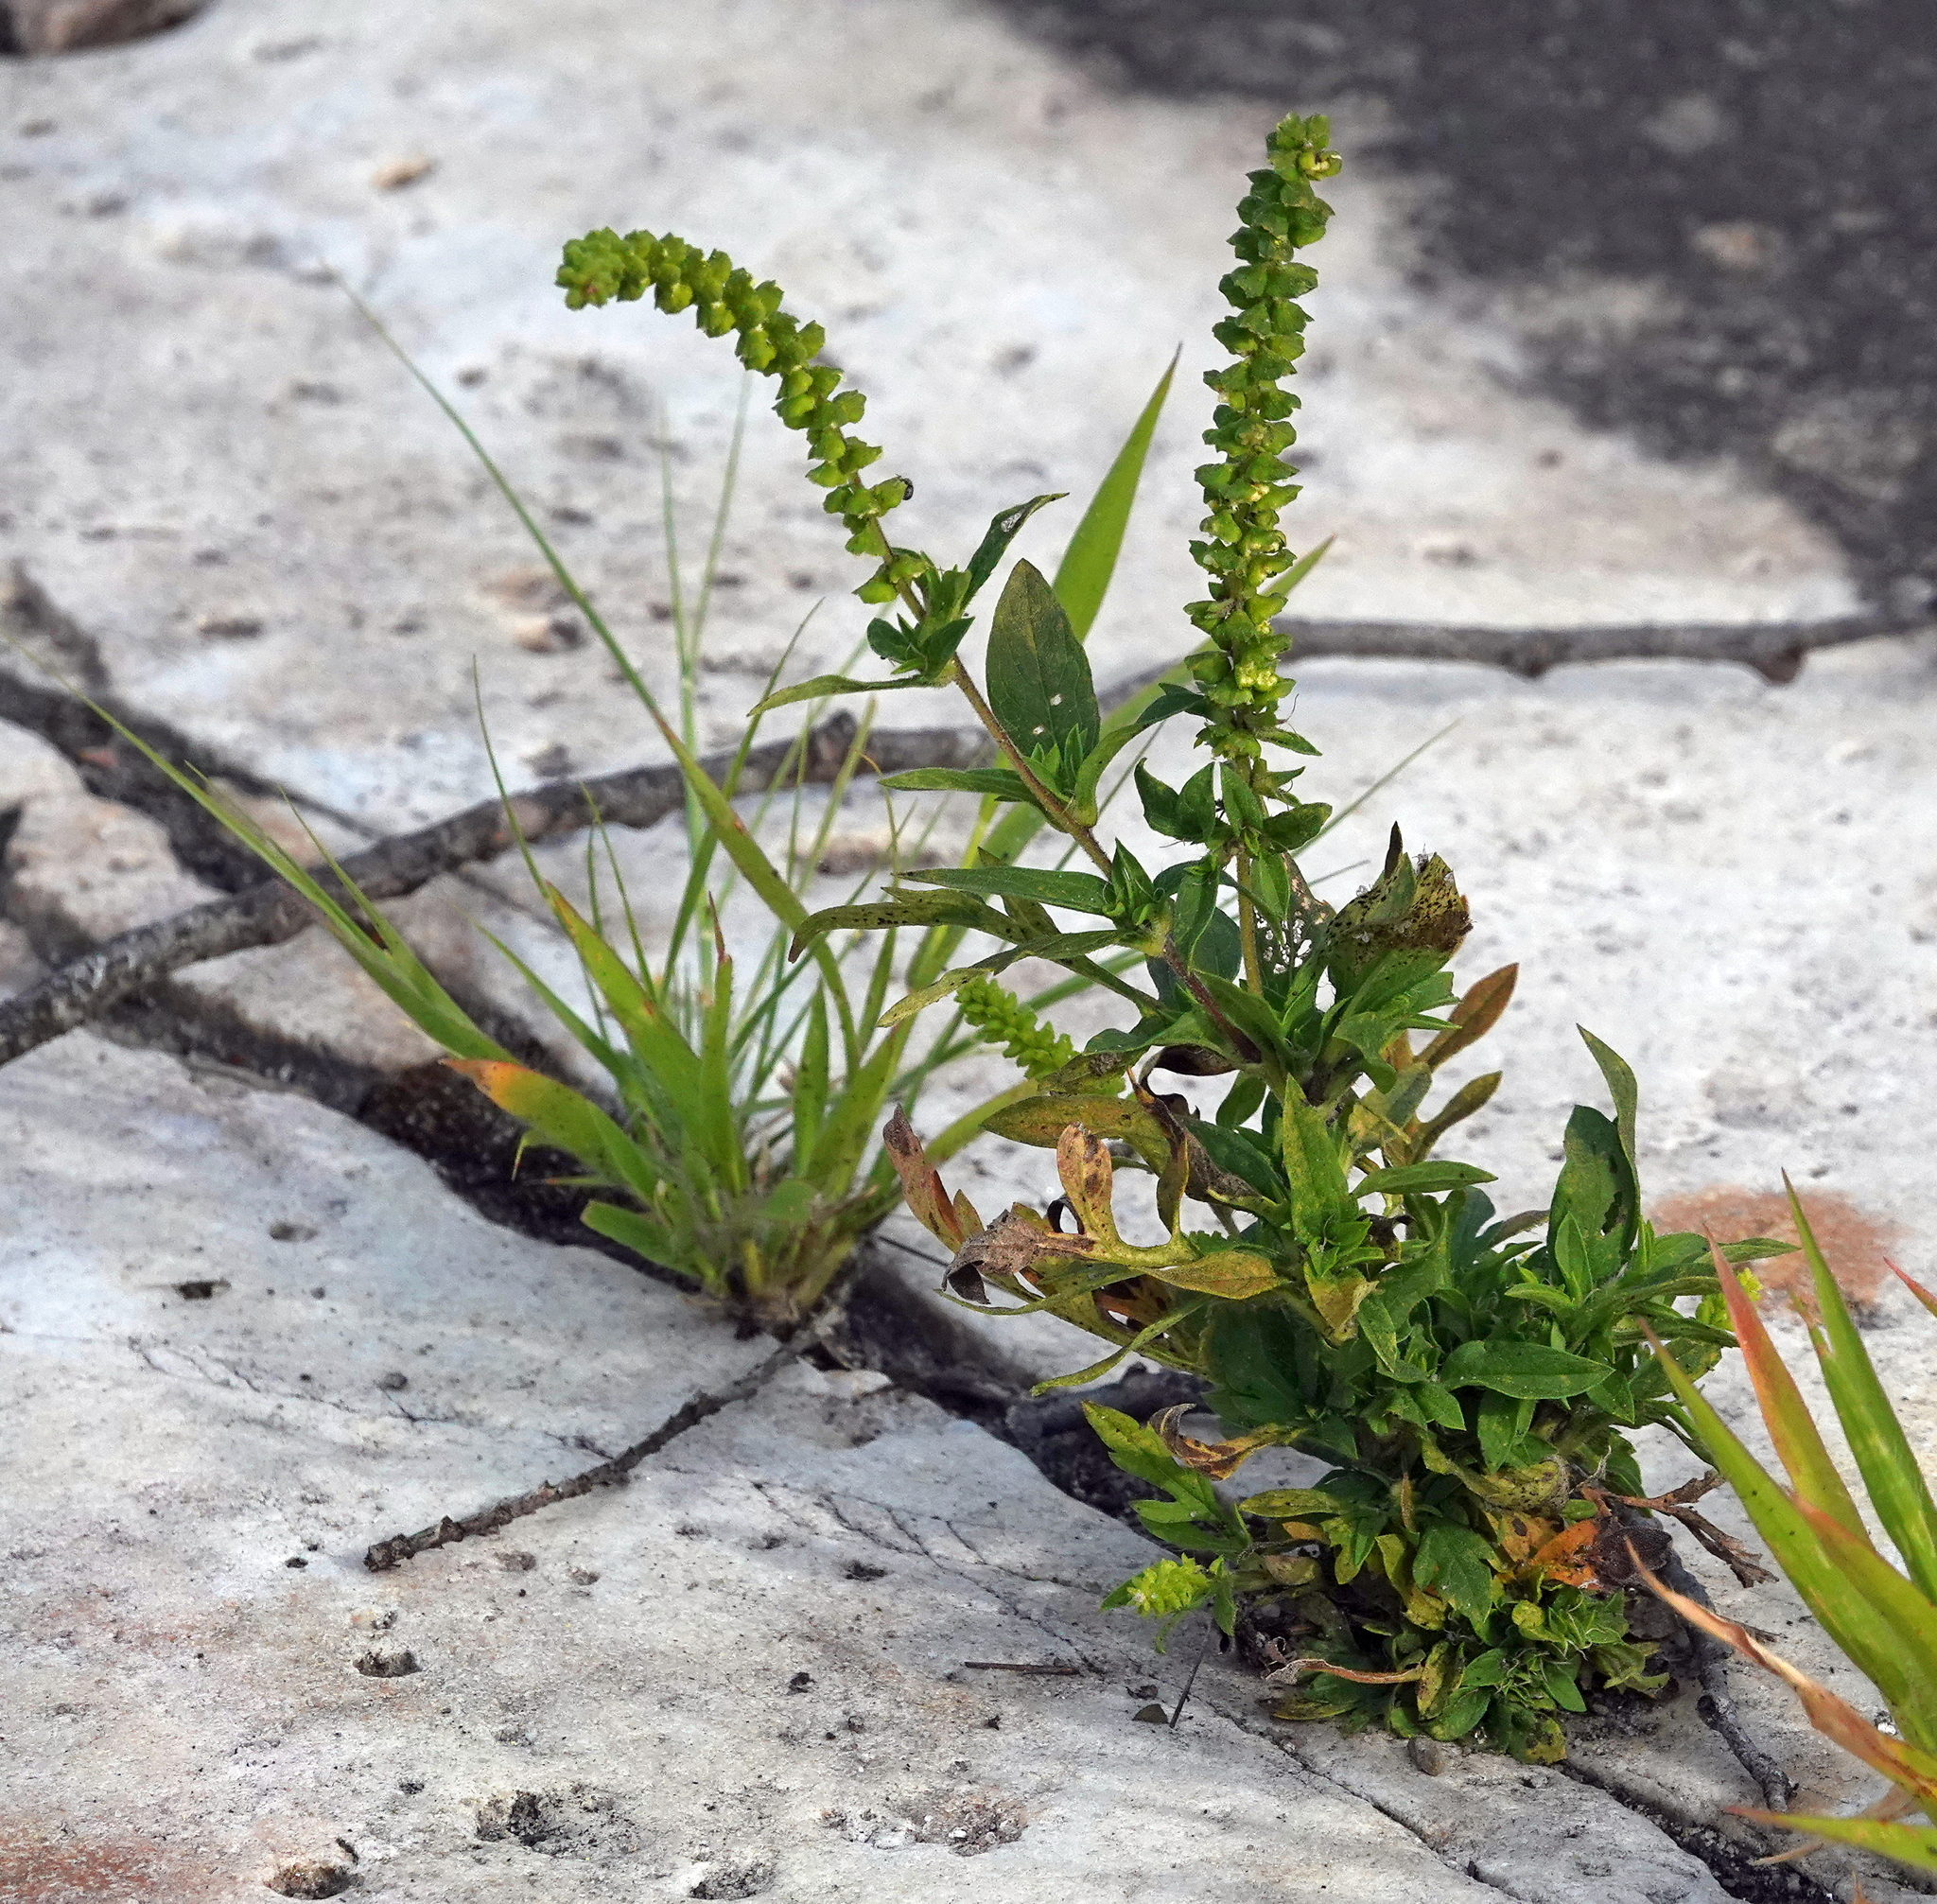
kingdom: Plantae
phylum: Tracheophyta
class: Magnoliopsida
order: Asterales
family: Asteraceae
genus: Ambrosia
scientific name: Ambrosia artemisiifolia
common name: Annual ragweed
